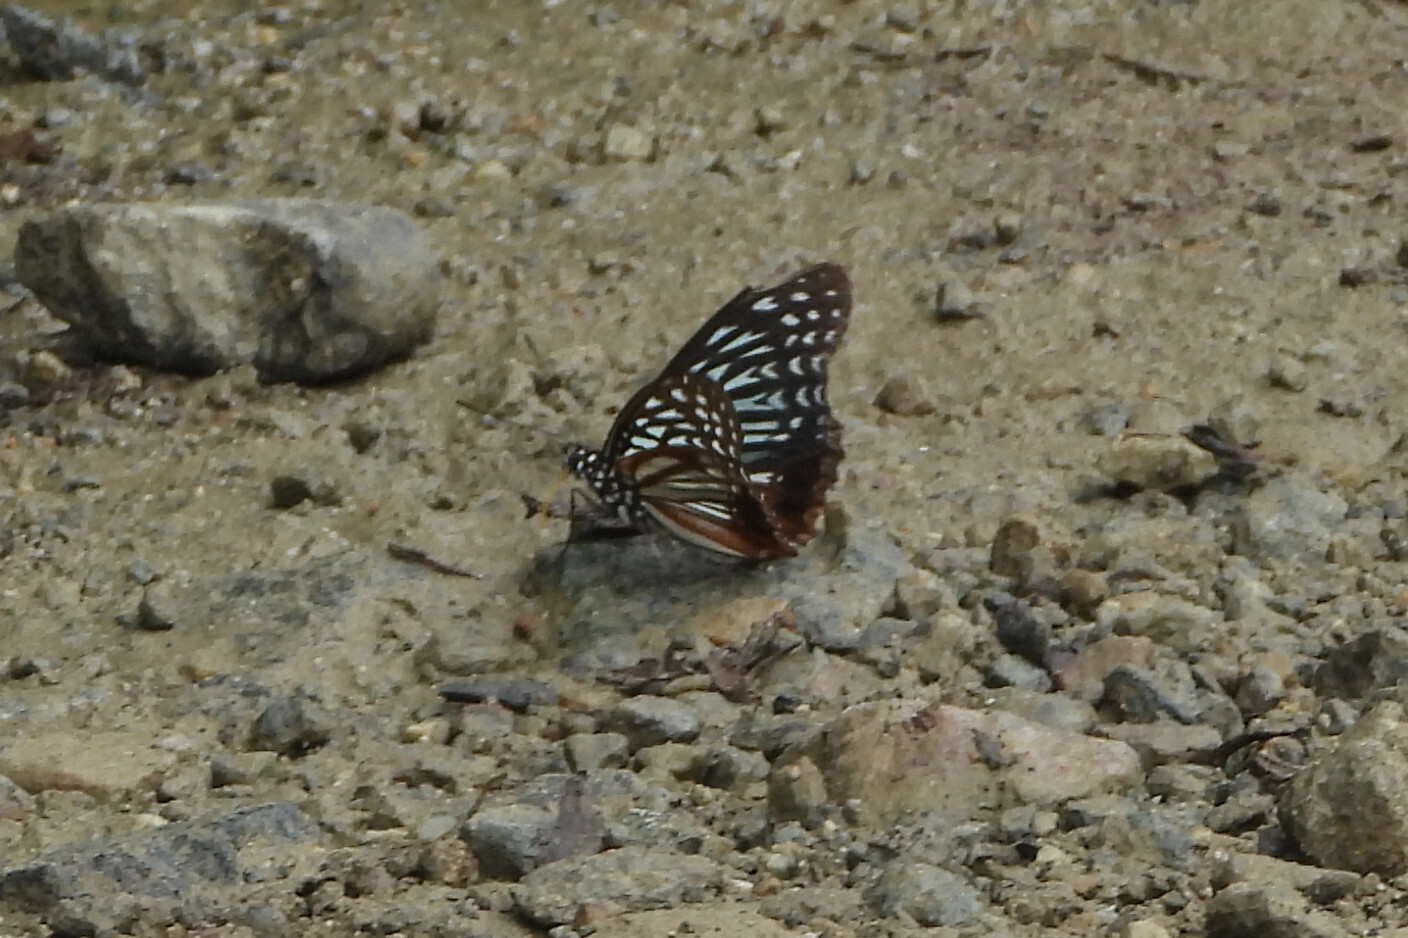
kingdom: Animalia
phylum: Arthropoda
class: Insecta
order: Lepidoptera
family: Nymphalidae
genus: Hestinalis
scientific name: Hestinalis nama
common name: Circe
